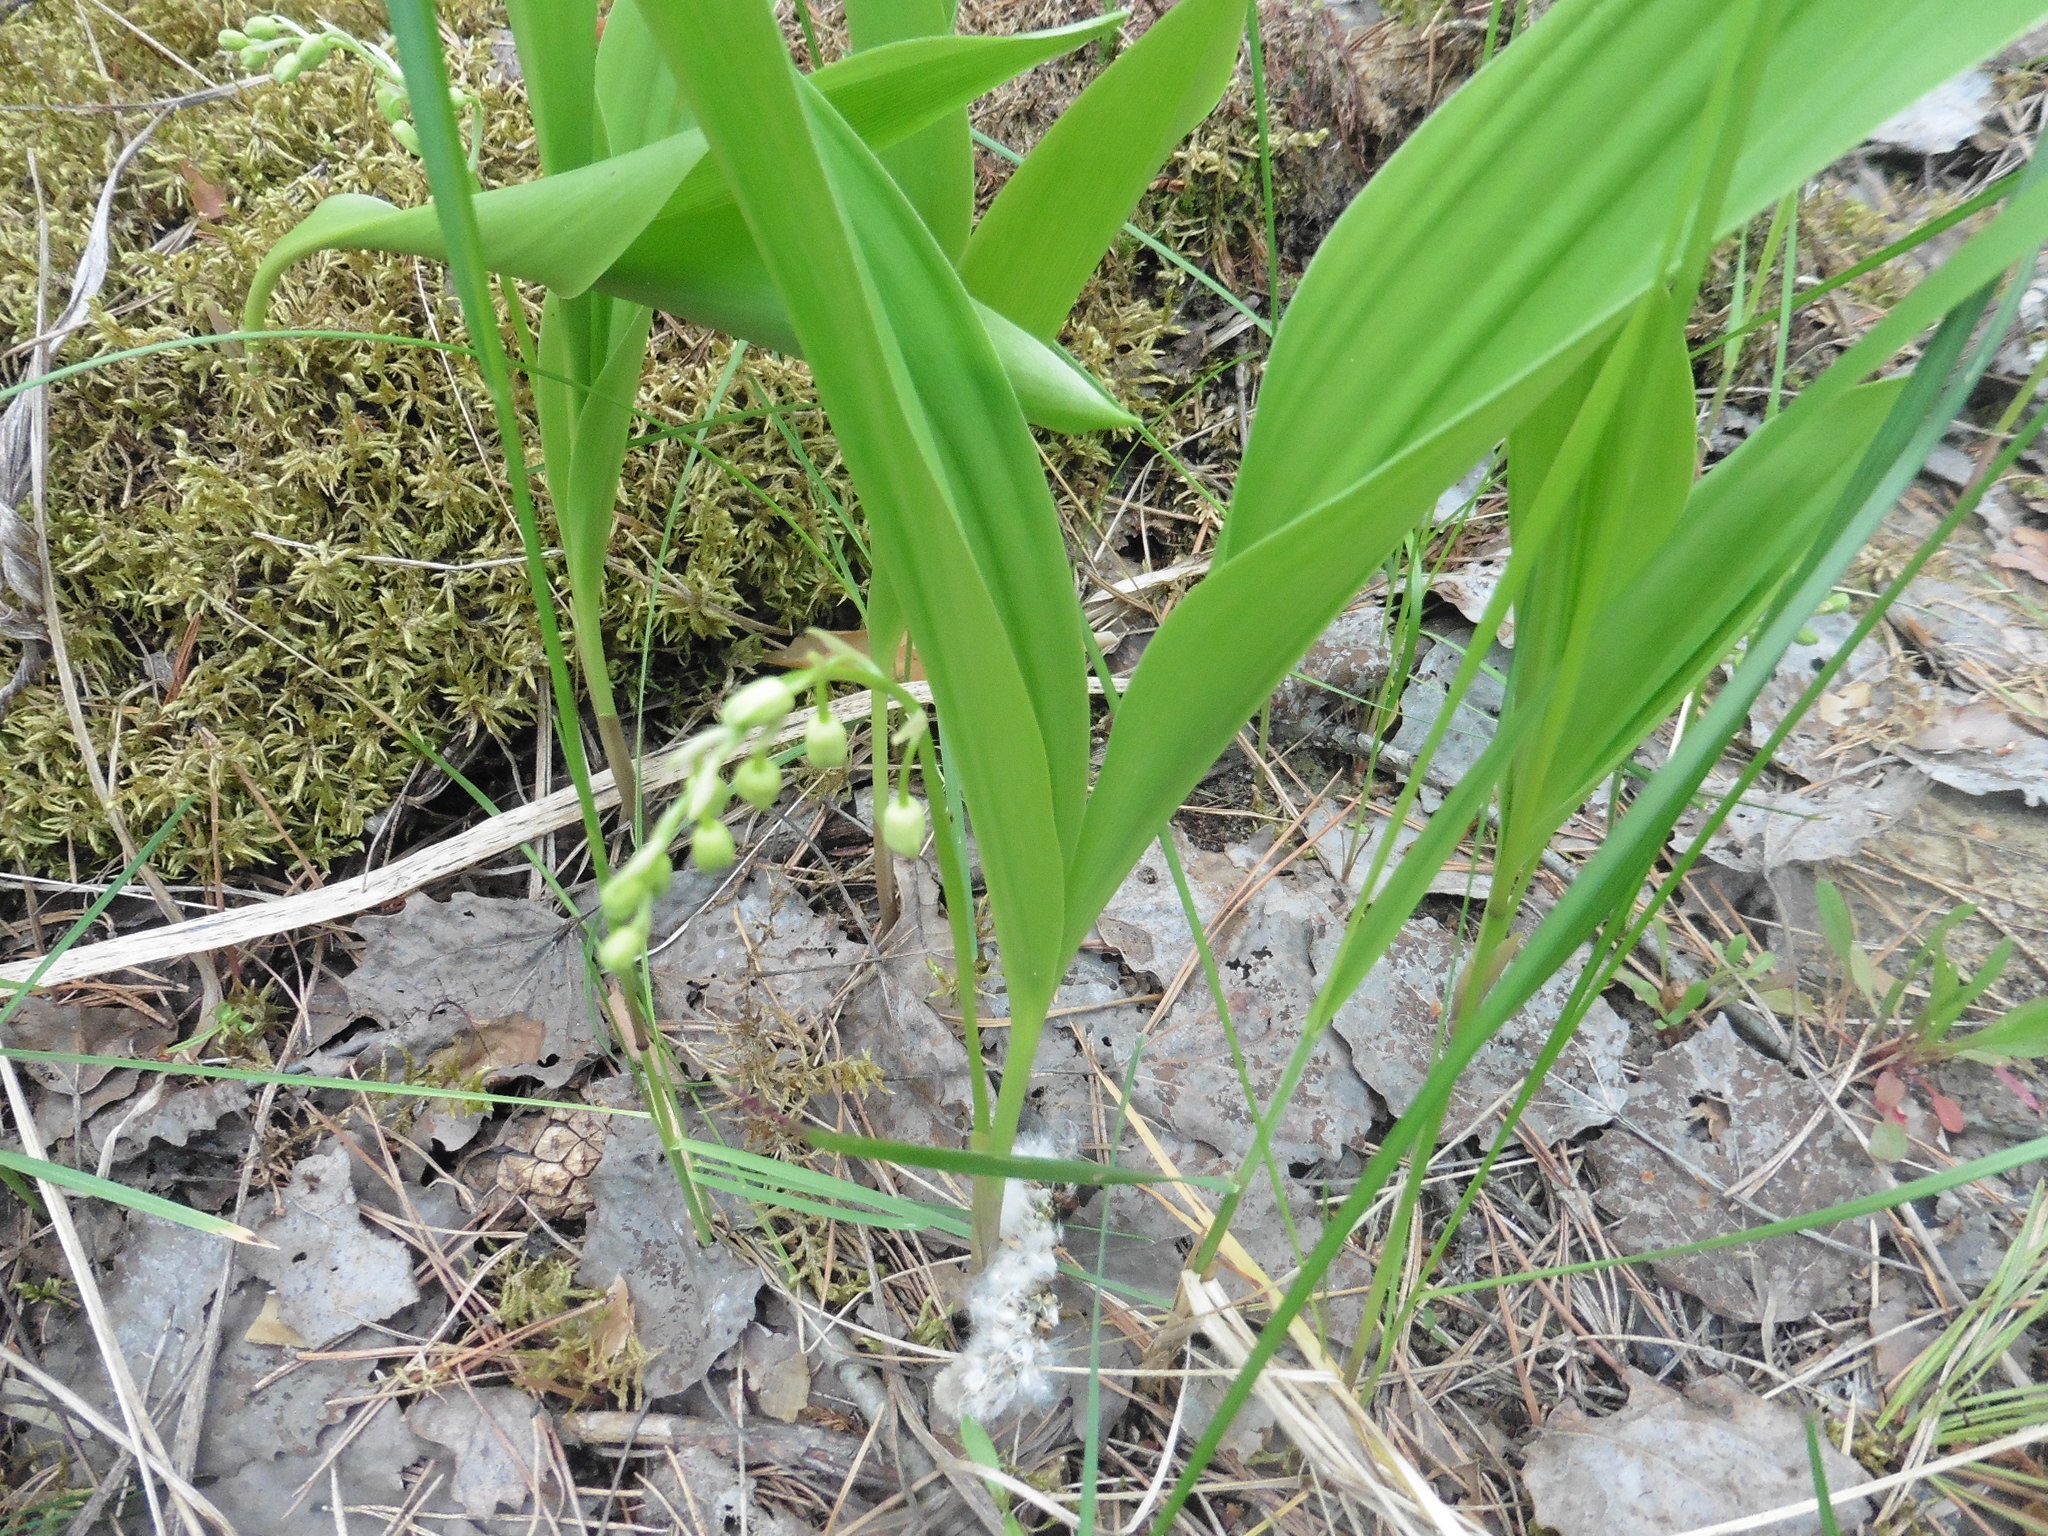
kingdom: Plantae
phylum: Tracheophyta
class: Liliopsida
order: Asparagales
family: Asparagaceae
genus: Convallaria
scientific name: Convallaria majalis
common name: Lily-of-the-valley
